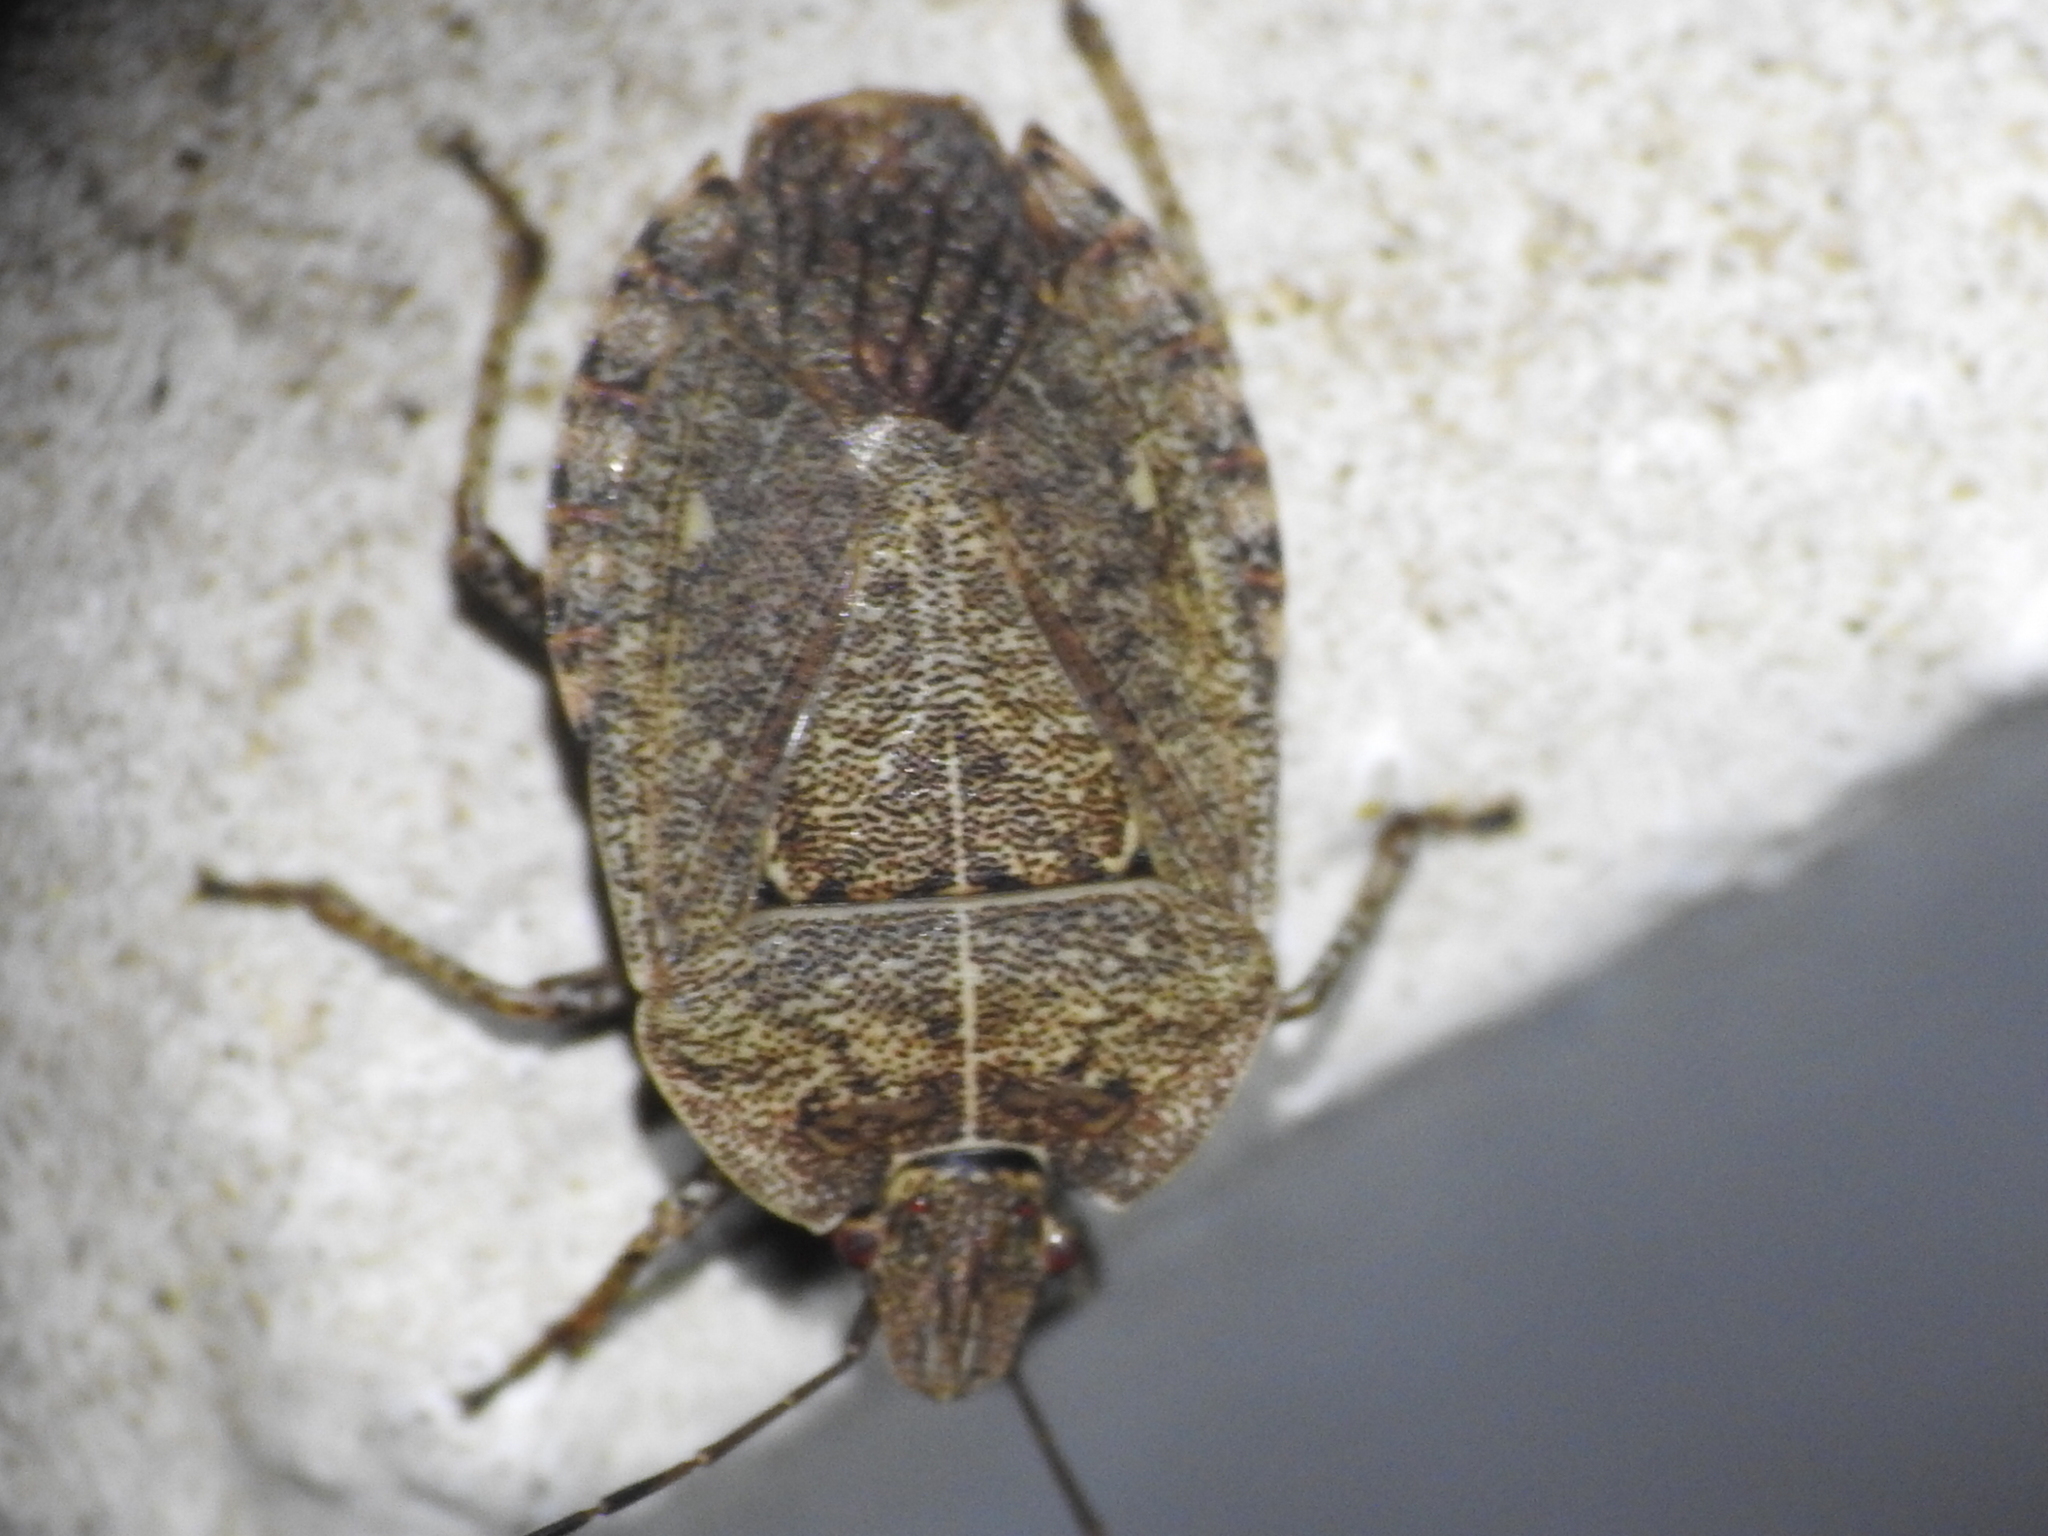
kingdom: Animalia
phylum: Arthropoda
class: Insecta
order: Hemiptera
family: Pentatomidae
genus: Menecles
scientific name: Menecles insertus
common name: Elf shoe stink bug
